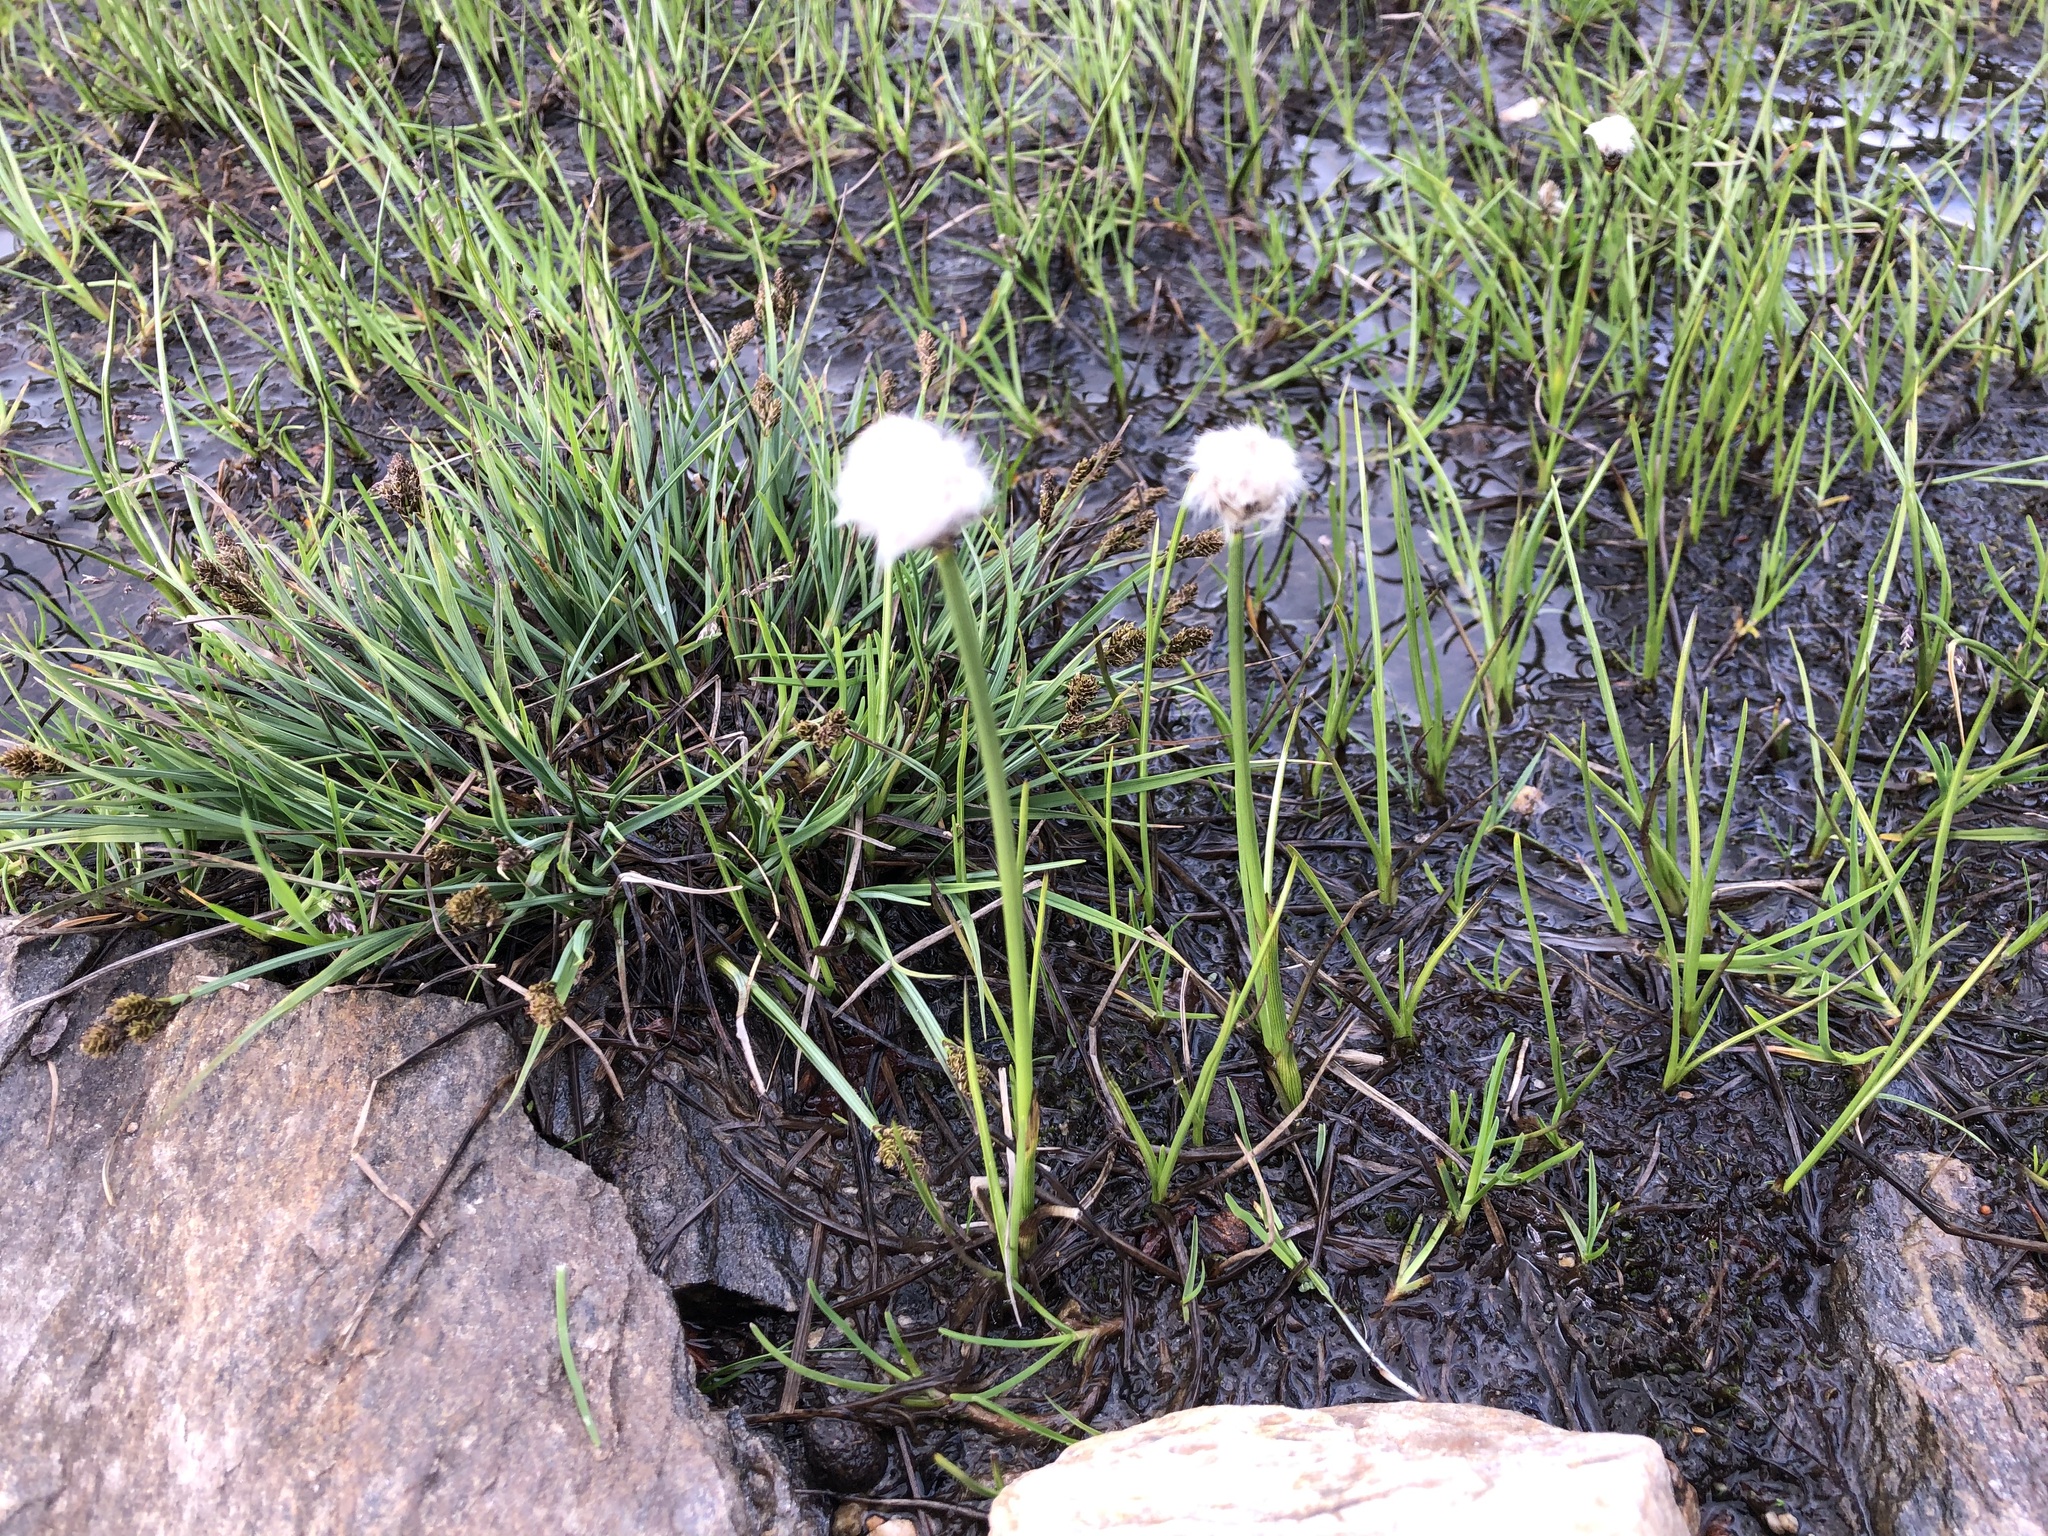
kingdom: Plantae
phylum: Tracheophyta
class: Liliopsida
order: Poales
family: Cyperaceae
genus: Eriophorum
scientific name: Eriophorum scheuchzeri
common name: Scheuchzer's cottongrass
